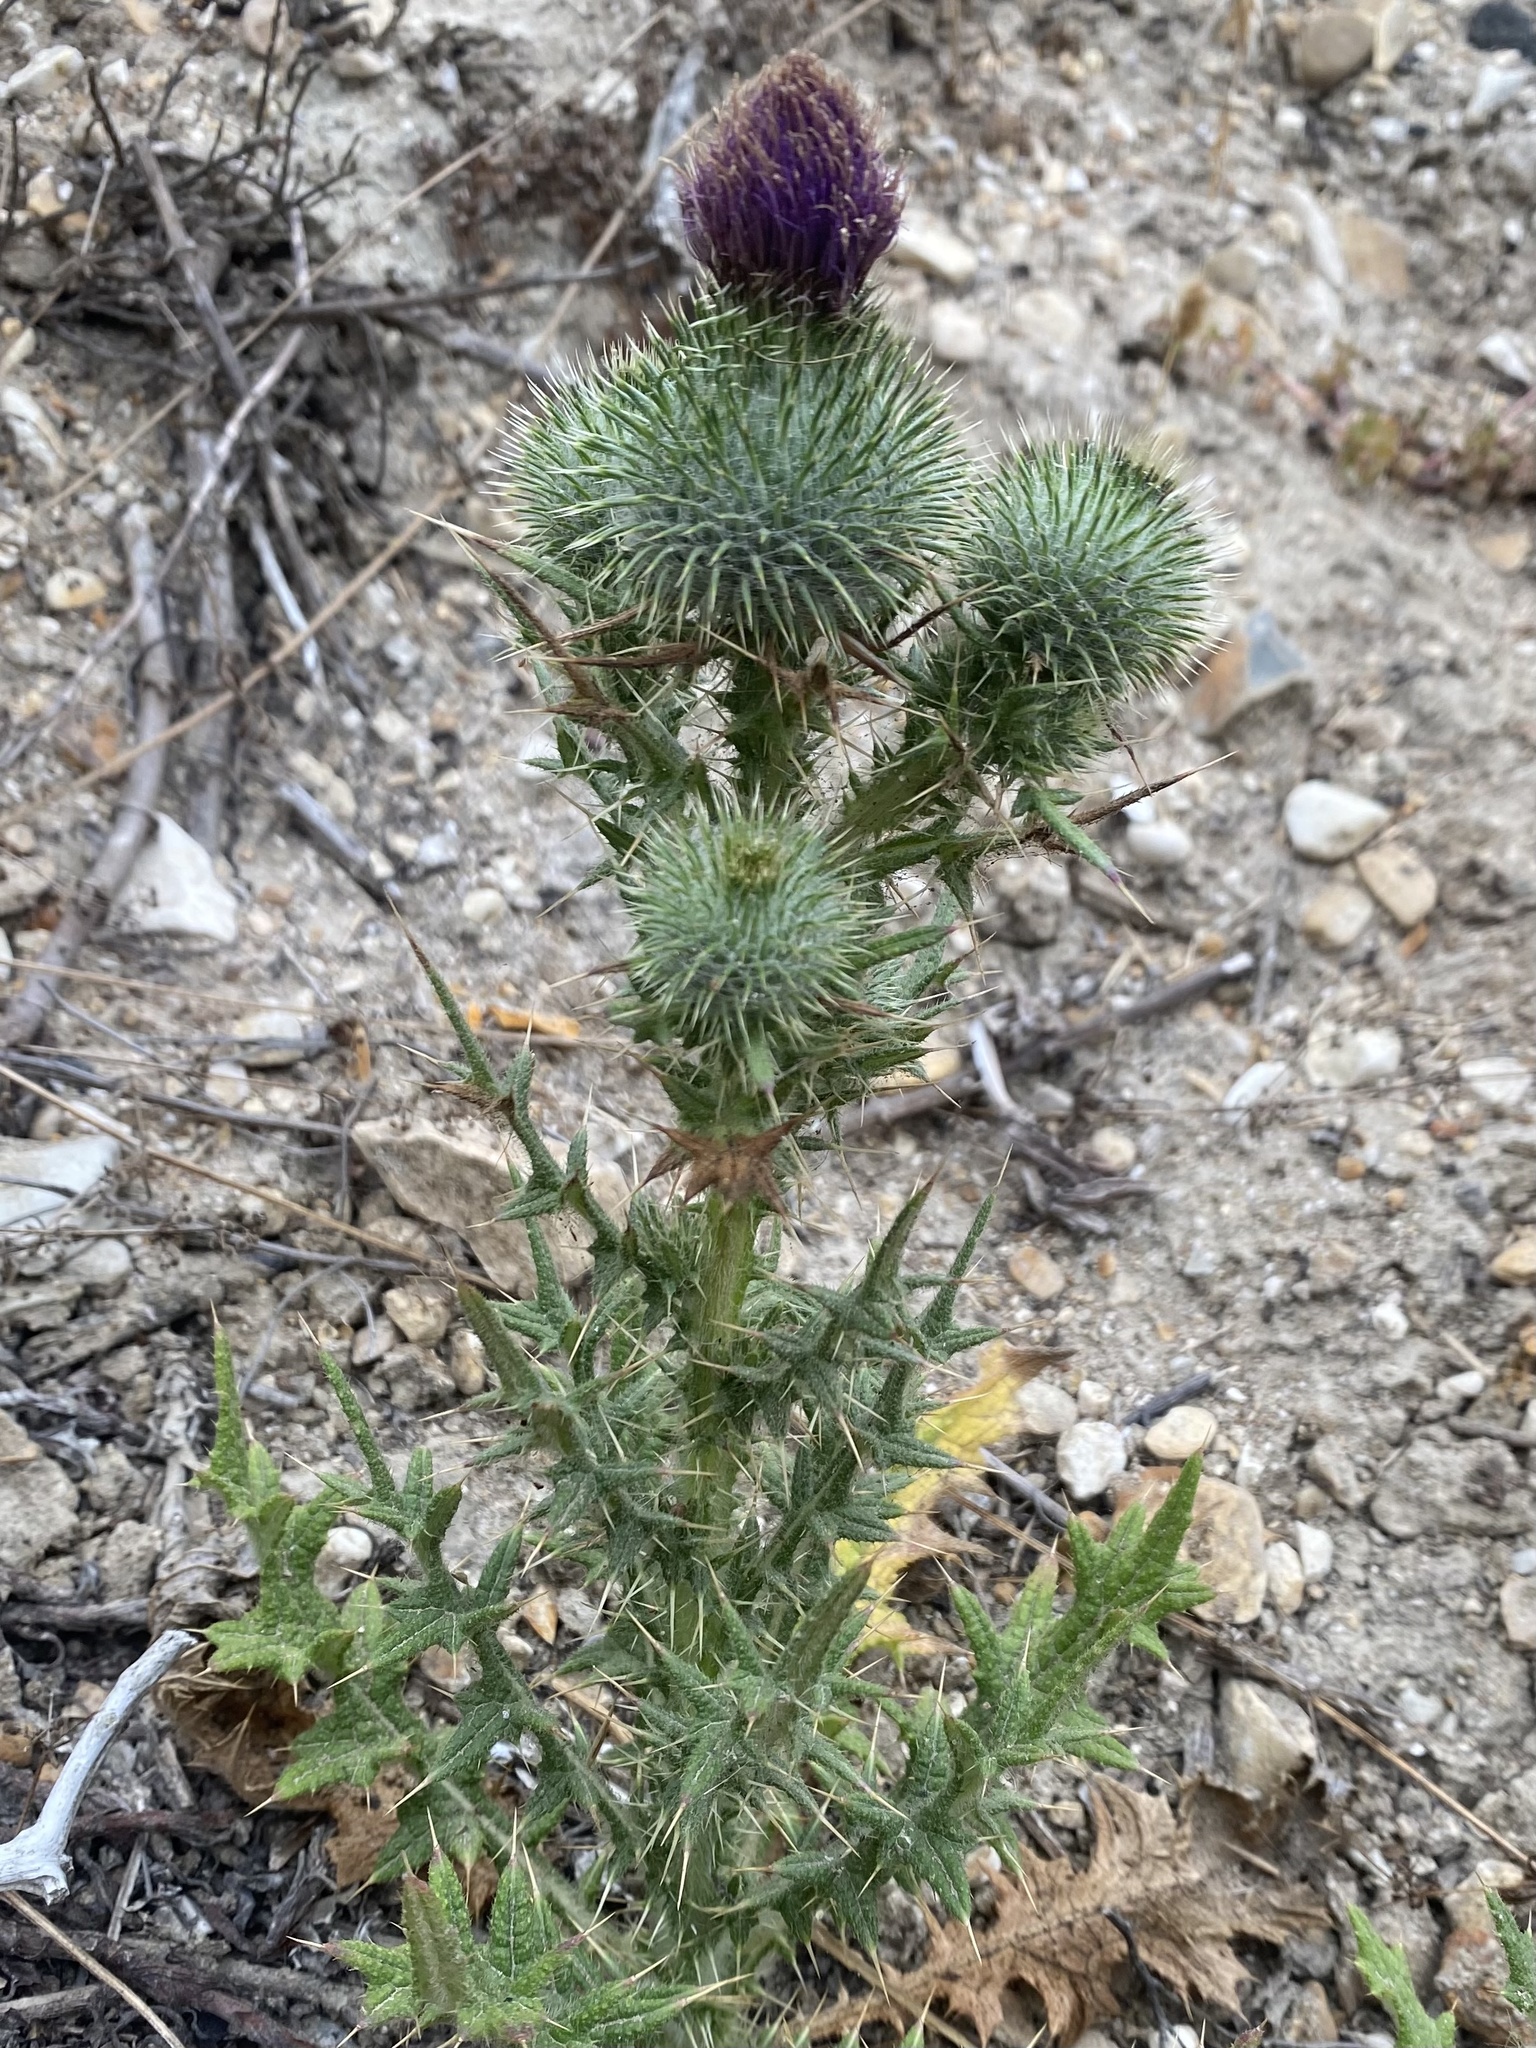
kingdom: Plantae
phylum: Tracheophyta
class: Magnoliopsida
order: Asterales
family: Asteraceae
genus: Cirsium
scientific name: Cirsium vulgare
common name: Bull thistle
